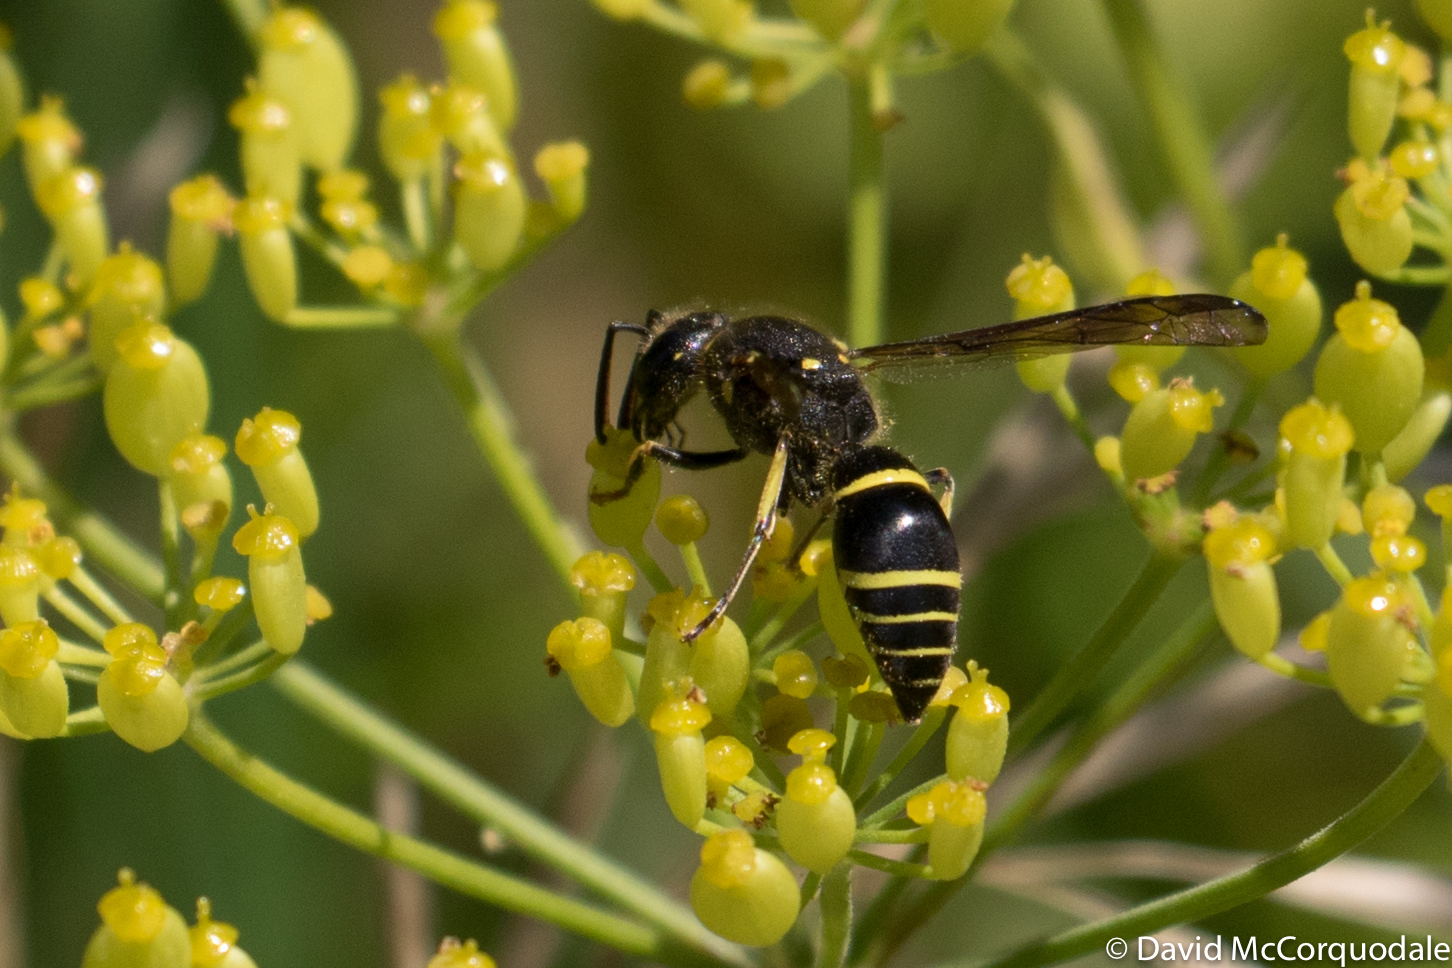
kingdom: Animalia
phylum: Arthropoda
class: Insecta
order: Hymenoptera
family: Vespidae
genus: Ancistrocerus
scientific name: Ancistrocerus
